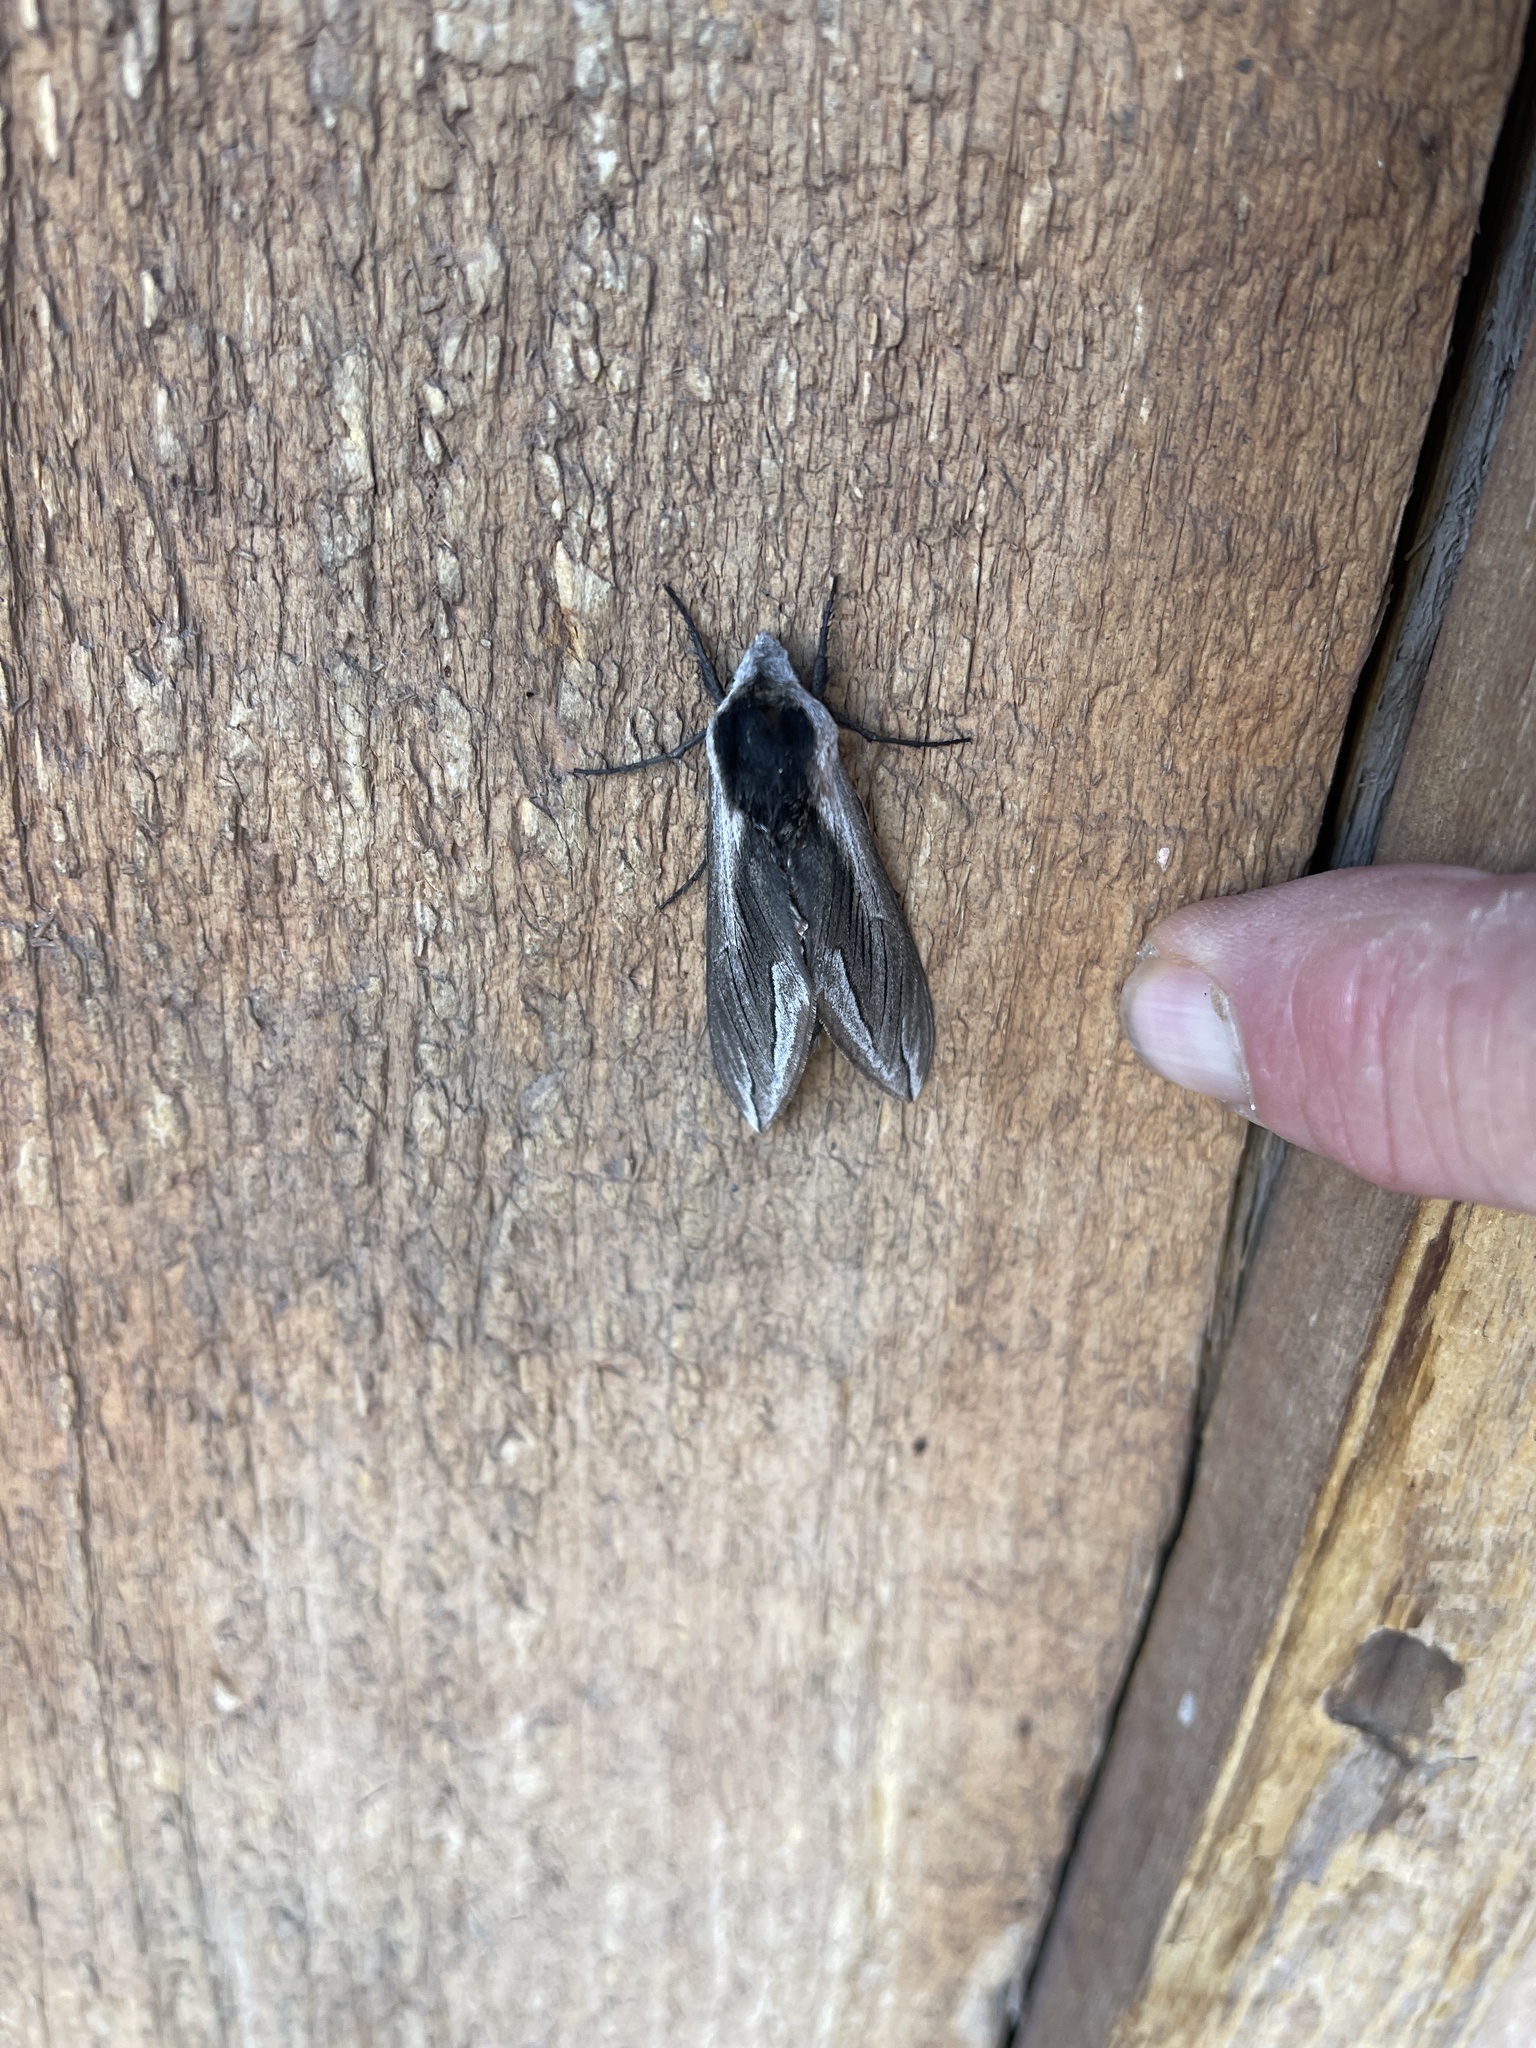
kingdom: Animalia
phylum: Arthropoda
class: Insecta
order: Lepidoptera
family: Sphingidae
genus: Sphinx
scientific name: Sphinx vashti
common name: Snowberry sphinx
